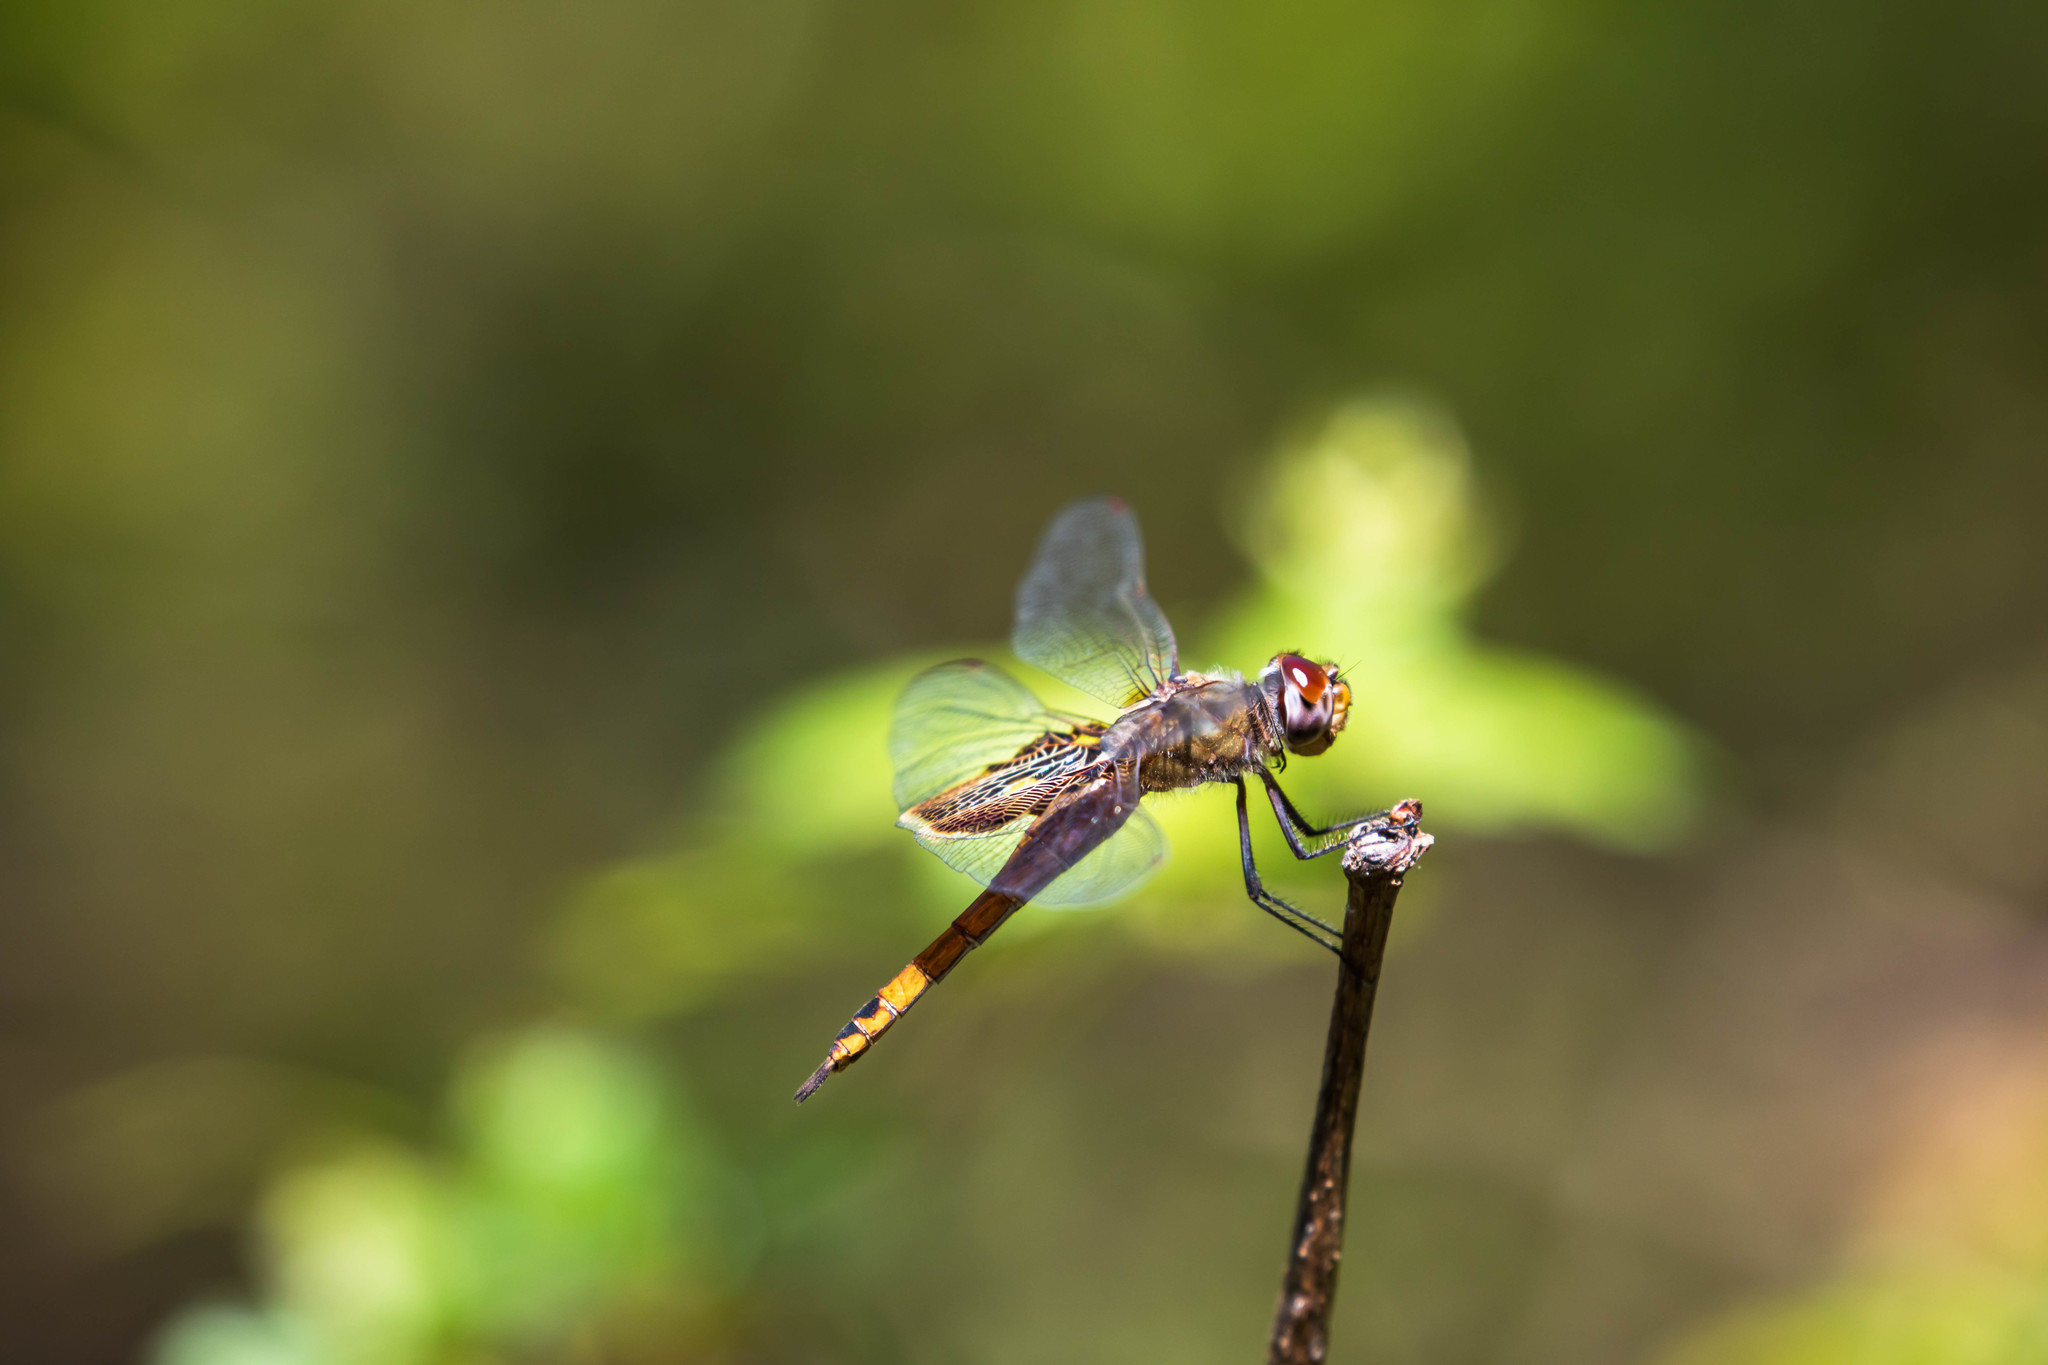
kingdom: Animalia
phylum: Arthropoda
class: Insecta
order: Odonata
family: Libellulidae
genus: Tramea
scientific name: Tramea onusta
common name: Red saddlebags
